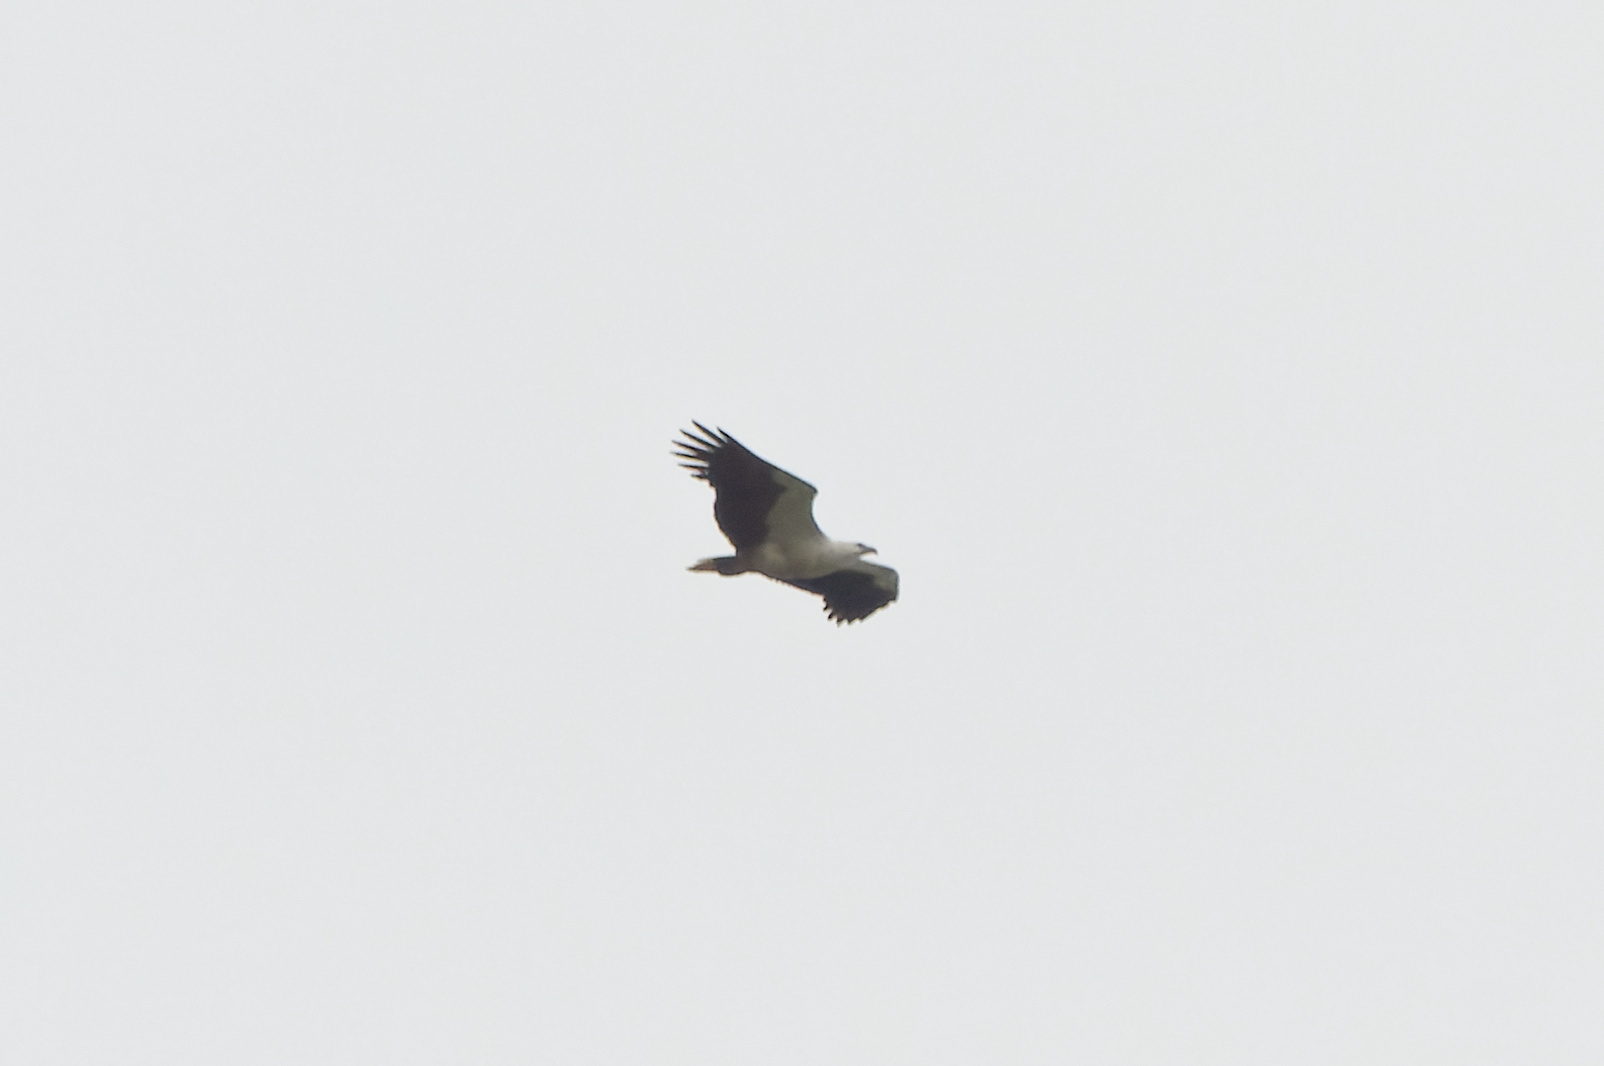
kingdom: Animalia
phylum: Chordata
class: Aves
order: Accipitriformes
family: Accipitridae
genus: Haliaeetus
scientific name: Haliaeetus leucogaster
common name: White-bellied sea eagle
